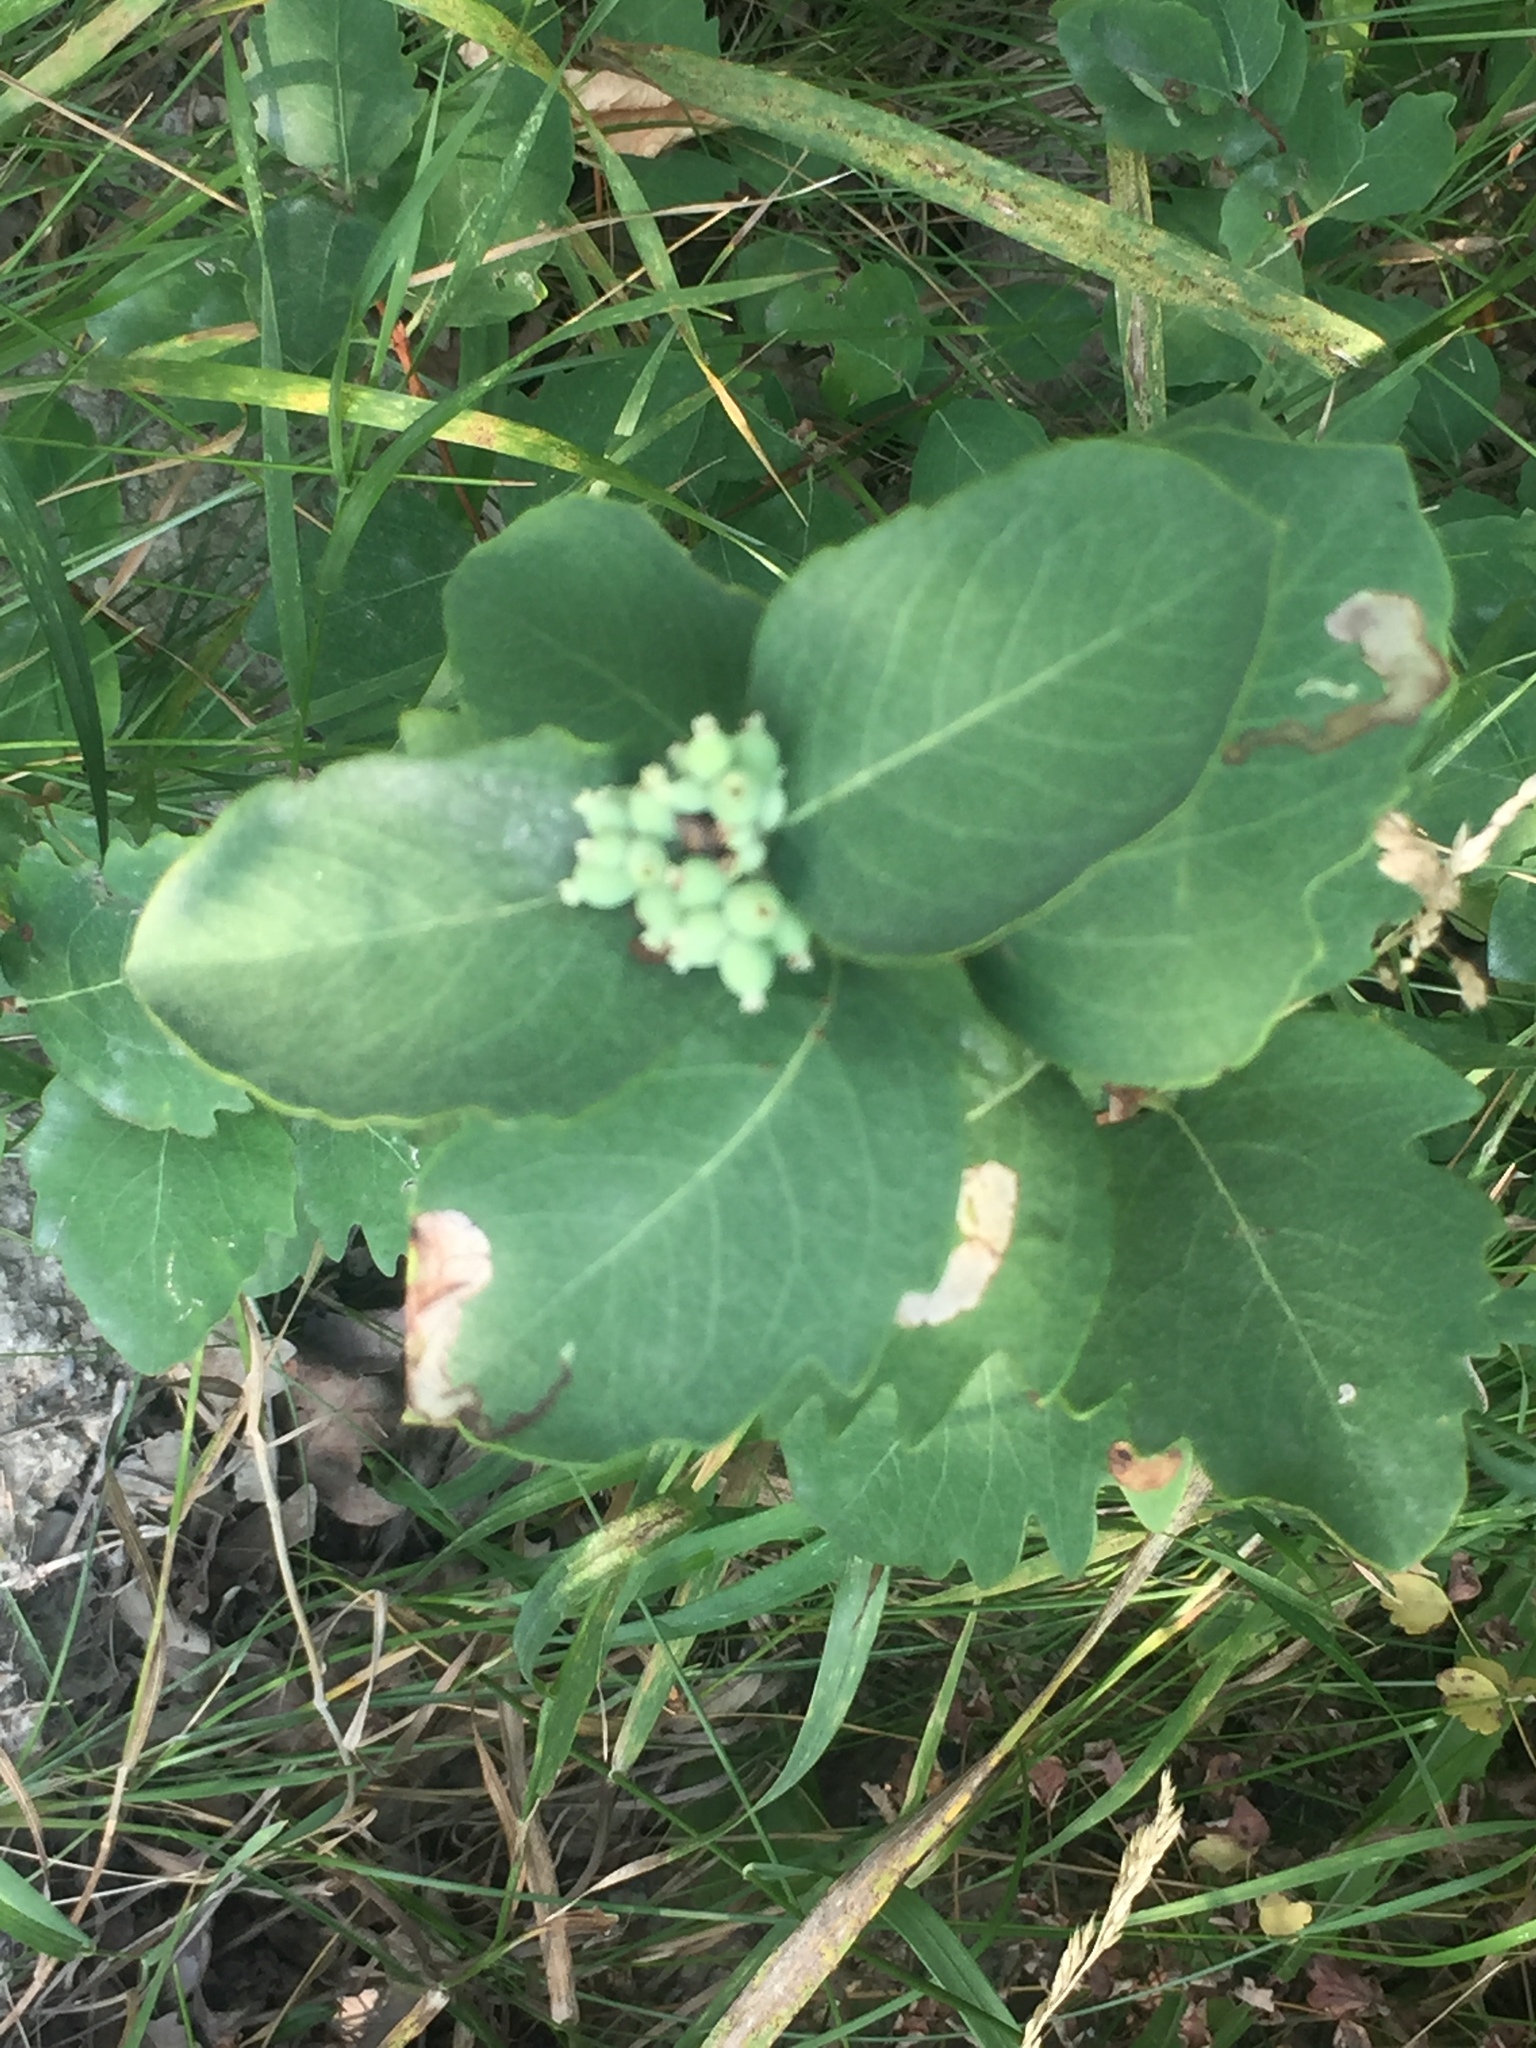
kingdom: Plantae
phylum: Tracheophyta
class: Magnoliopsida
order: Dipsacales
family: Caprifoliaceae
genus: Symphoricarpos
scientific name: Symphoricarpos occidentalis
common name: Wolfberry
